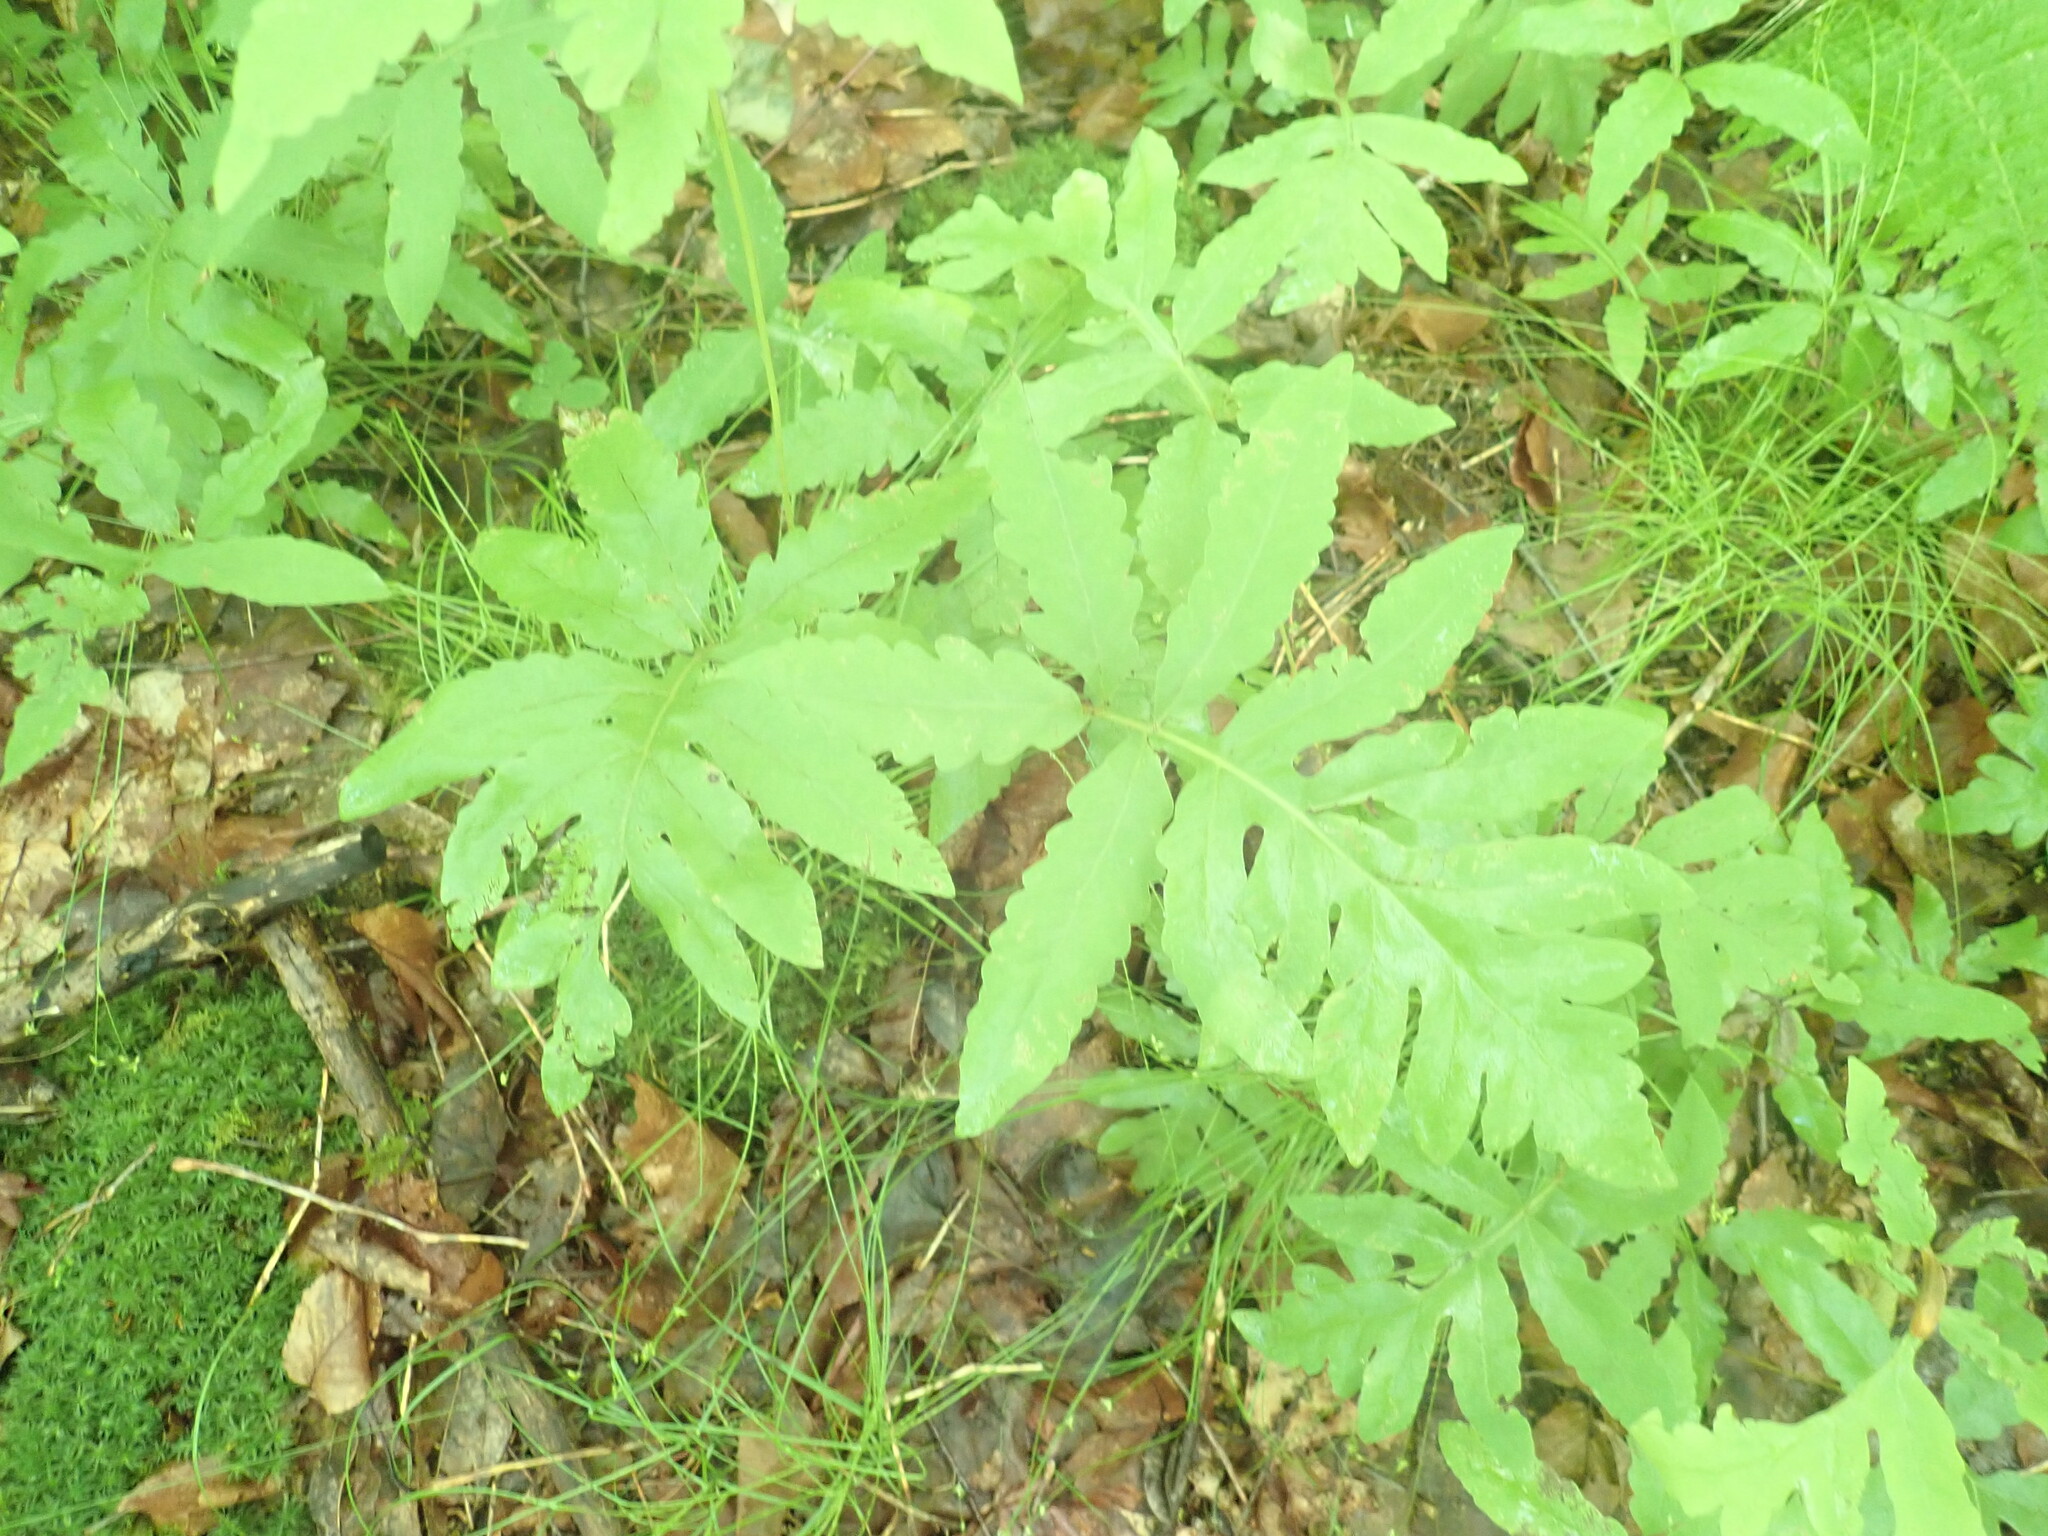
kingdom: Plantae
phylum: Tracheophyta
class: Polypodiopsida
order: Polypodiales
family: Onocleaceae
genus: Onoclea
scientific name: Onoclea sensibilis
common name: Sensitive fern
